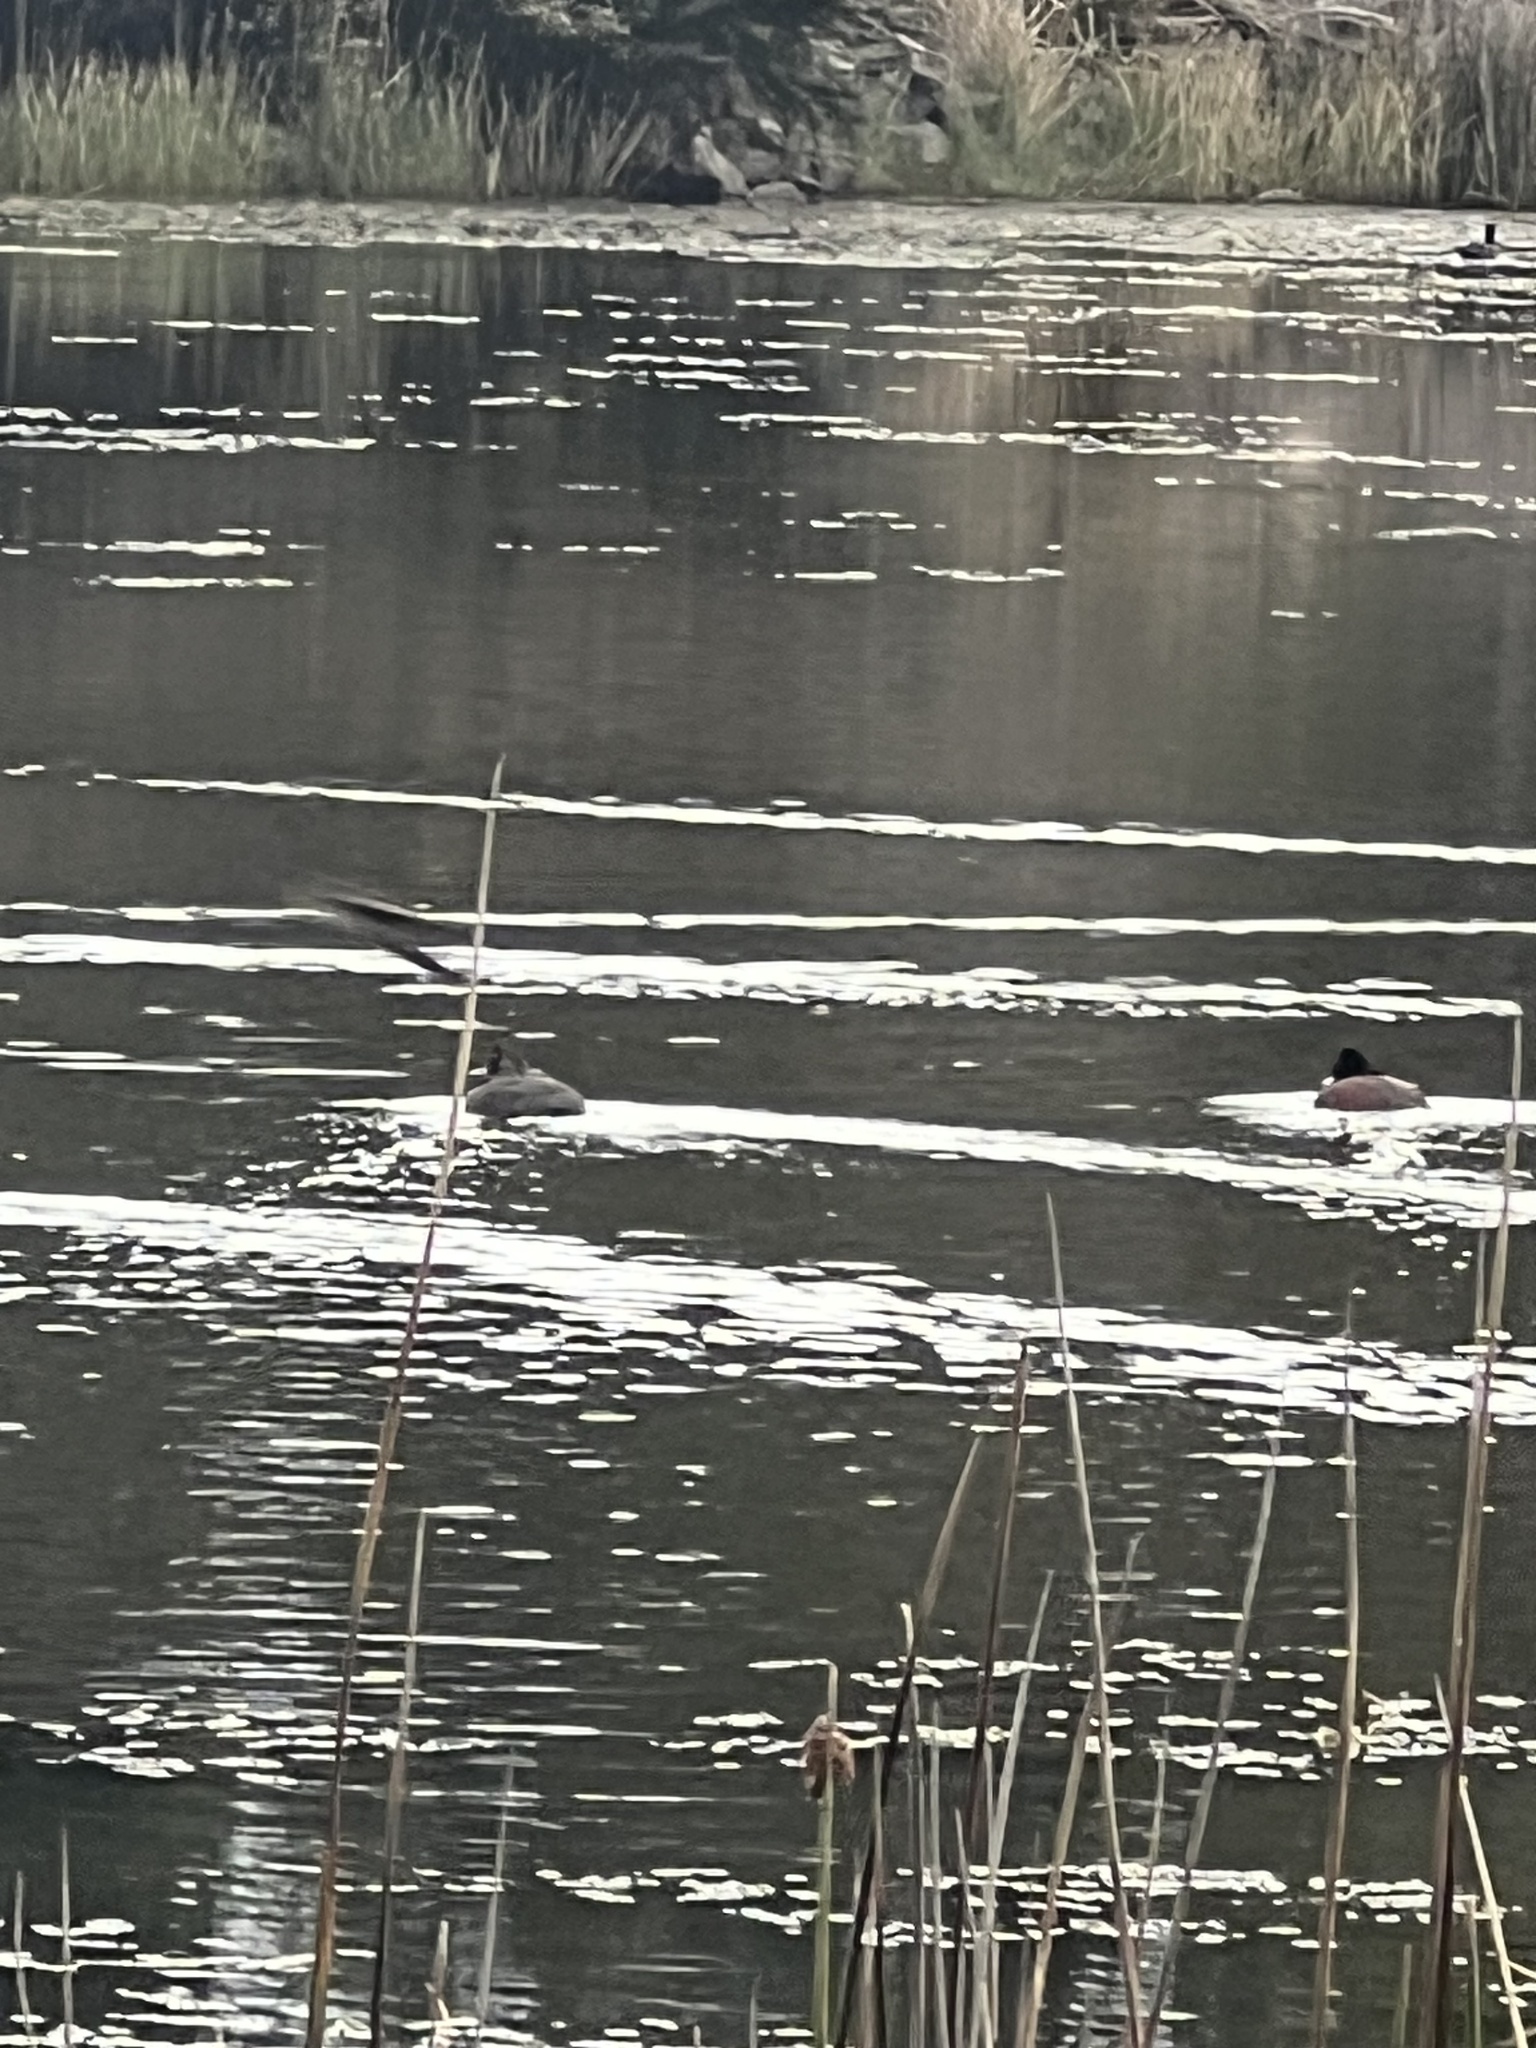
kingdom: Animalia
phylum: Chordata
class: Aves
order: Anseriformes
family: Anatidae
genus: Oxyura
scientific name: Oxyura australis
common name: Blue-billed duck
